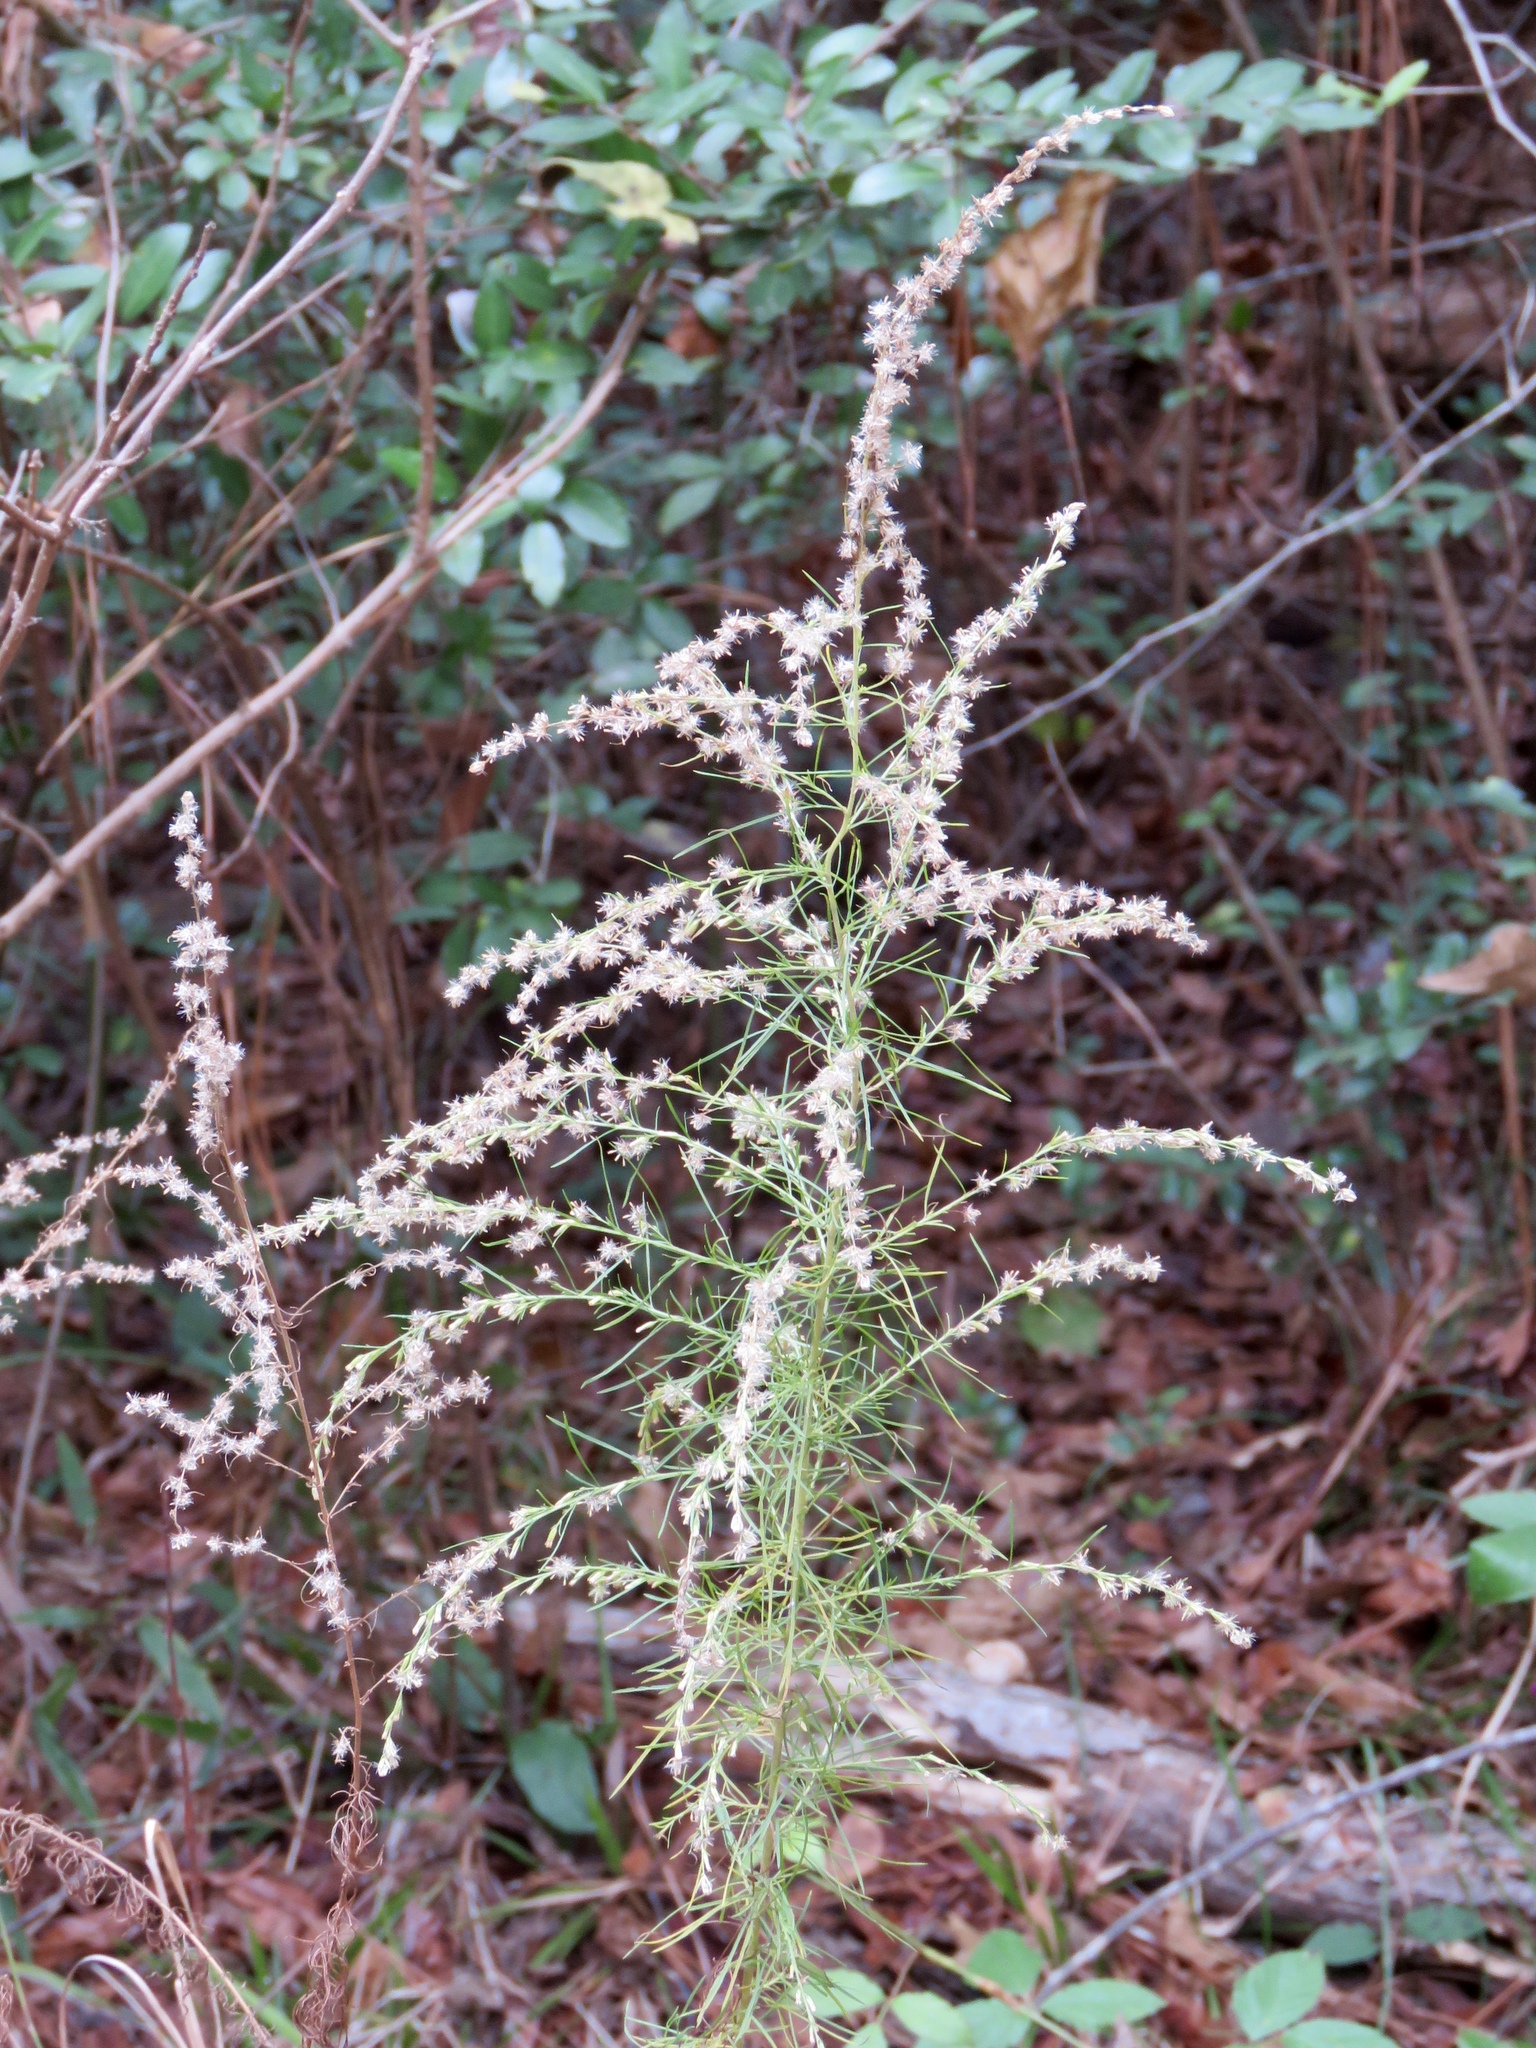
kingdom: Plantae
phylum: Tracheophyta
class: Magnoliopsida
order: Asterales
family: Asteraceae
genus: Eupatorium
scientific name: Eupatorium capillifolium
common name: Dog-fennel
